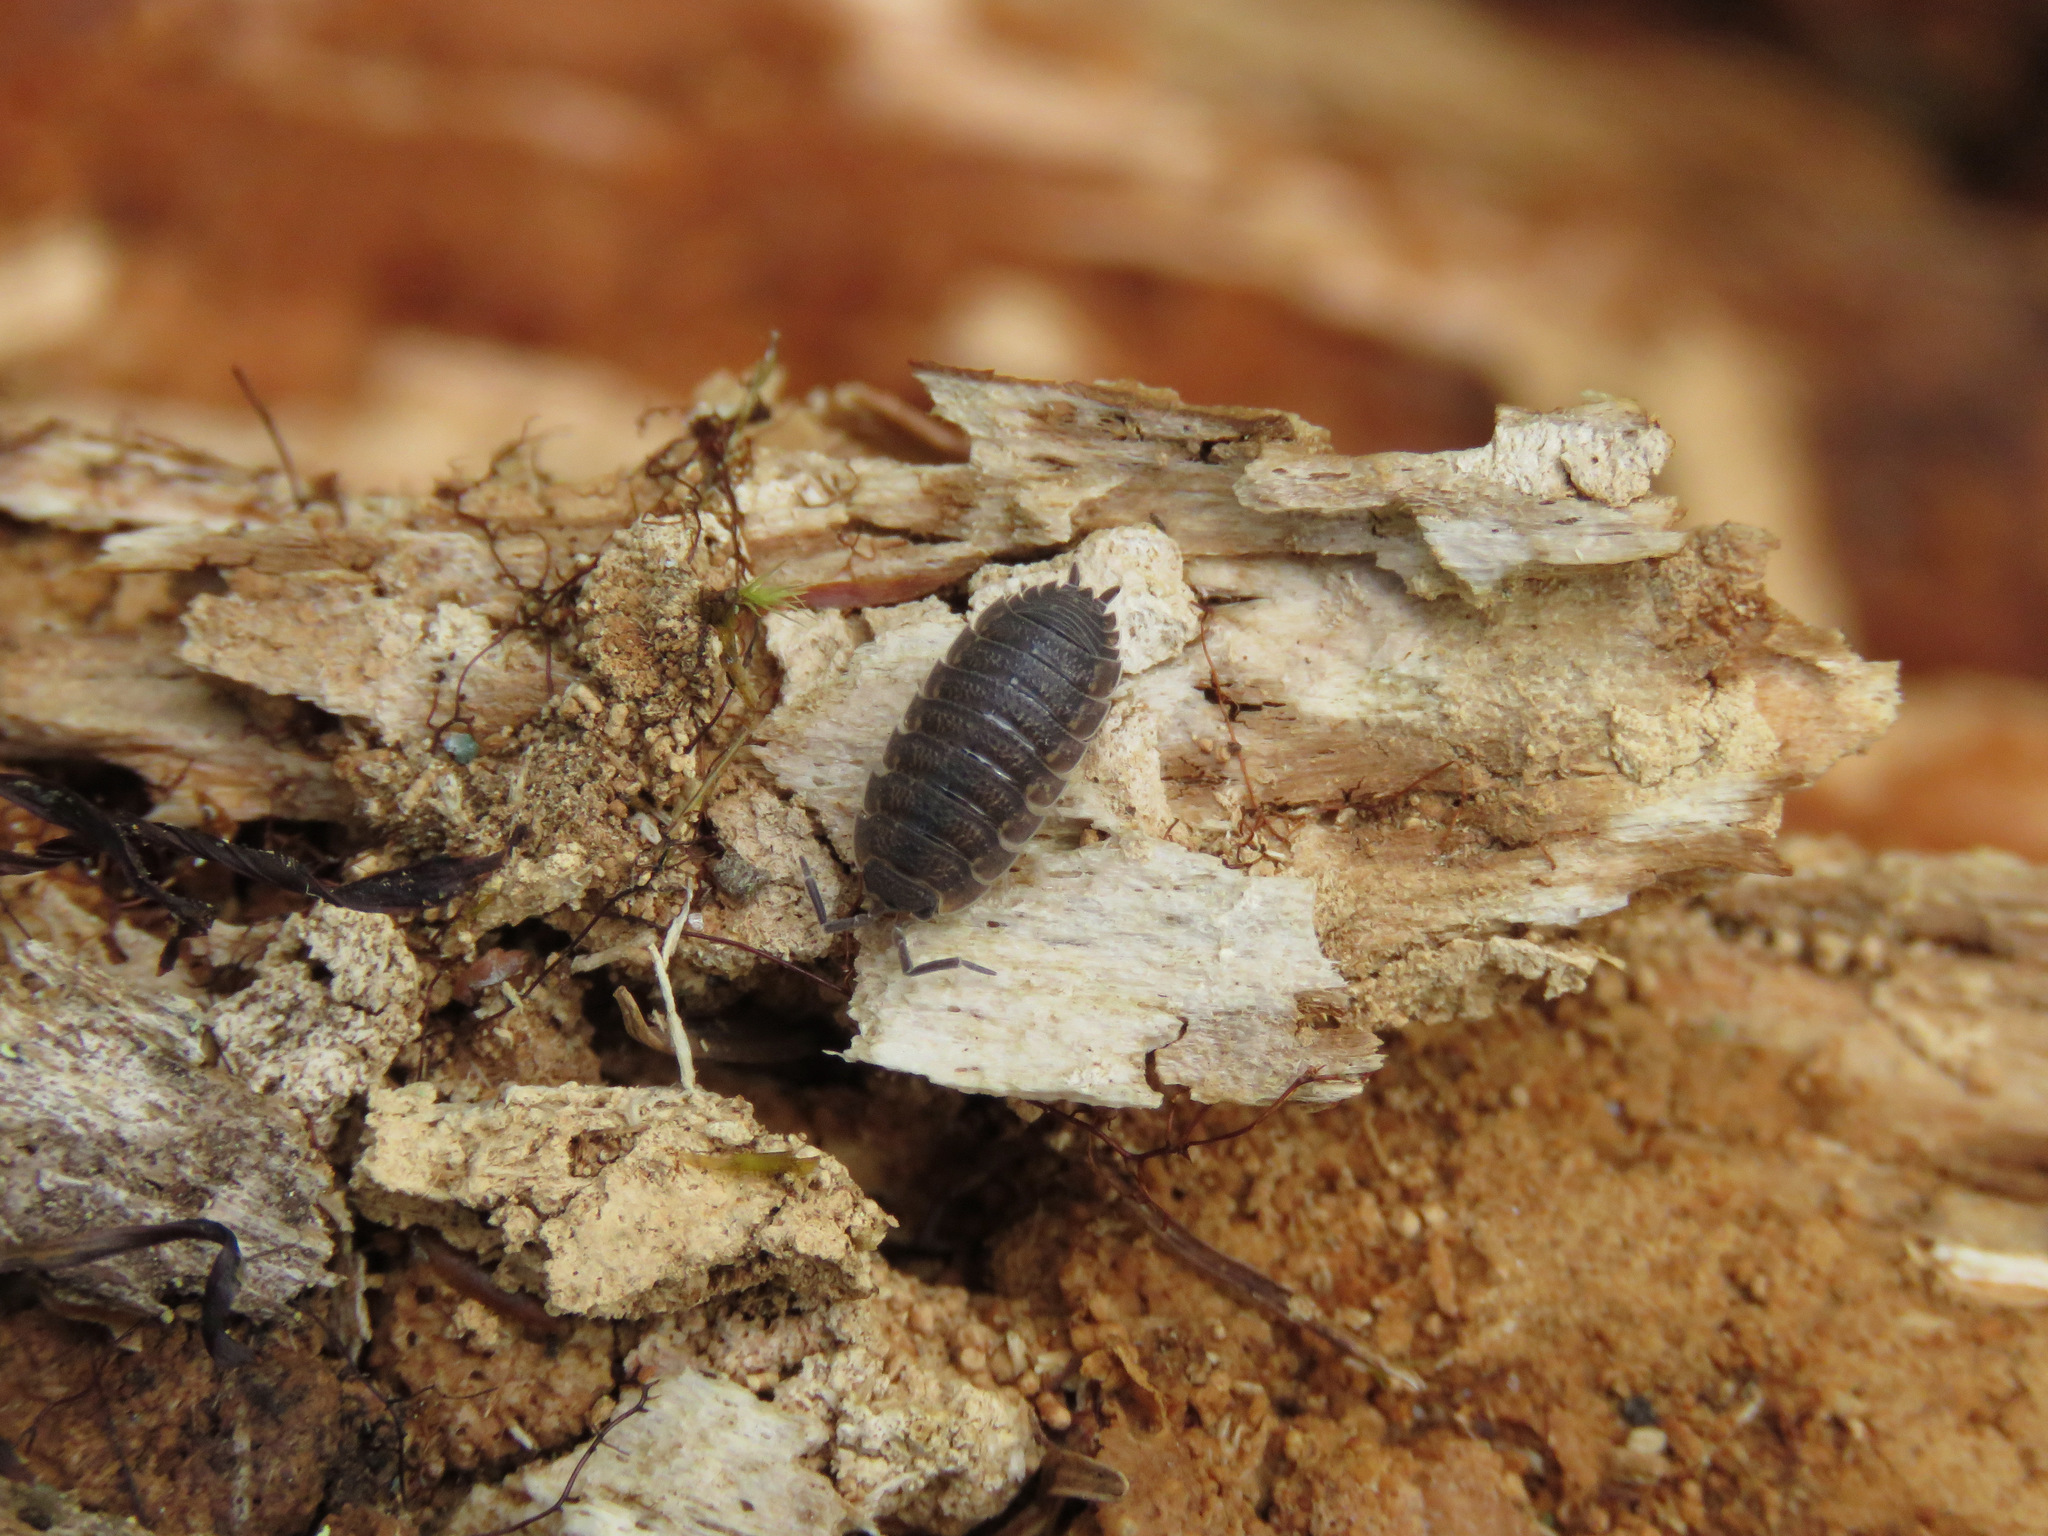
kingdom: Animalia
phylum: Arthropoda
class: Malacostraca
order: Isopoda
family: Porcellionidae
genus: Porcellio
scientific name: Porcellio scaber
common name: Common rough woodlouse
